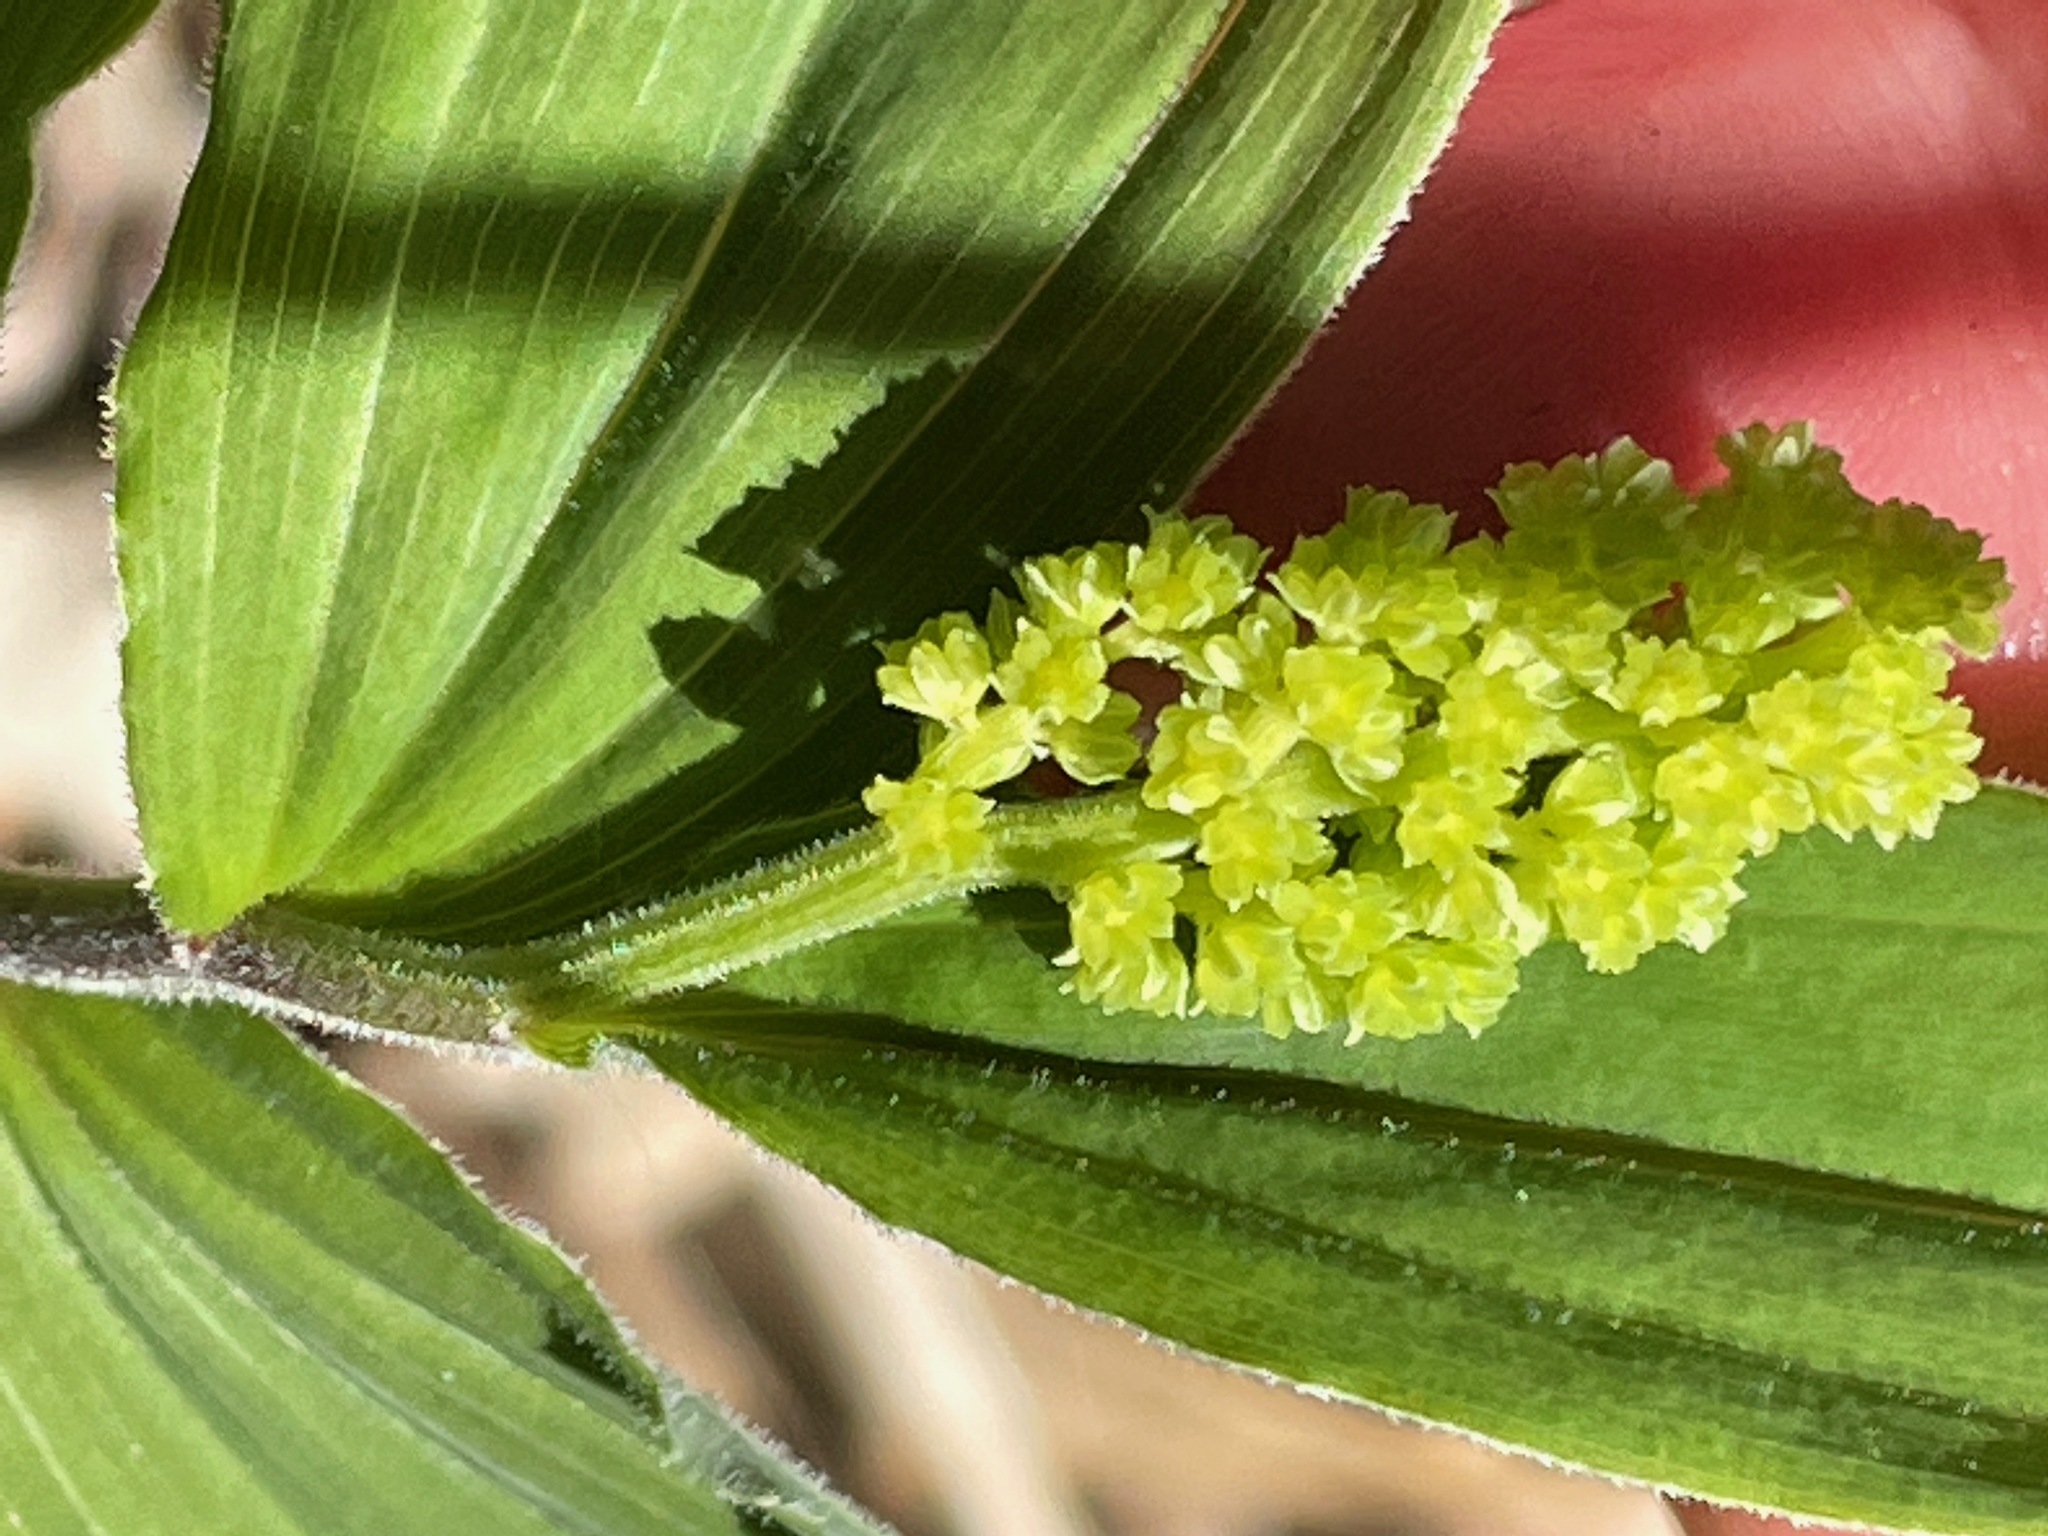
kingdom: Plantae
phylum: Tracheophyta
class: Liliopsida
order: Asparagales
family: Asparagaceae
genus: Maianthemum
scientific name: Maianthemum racemosum
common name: False spikenard
